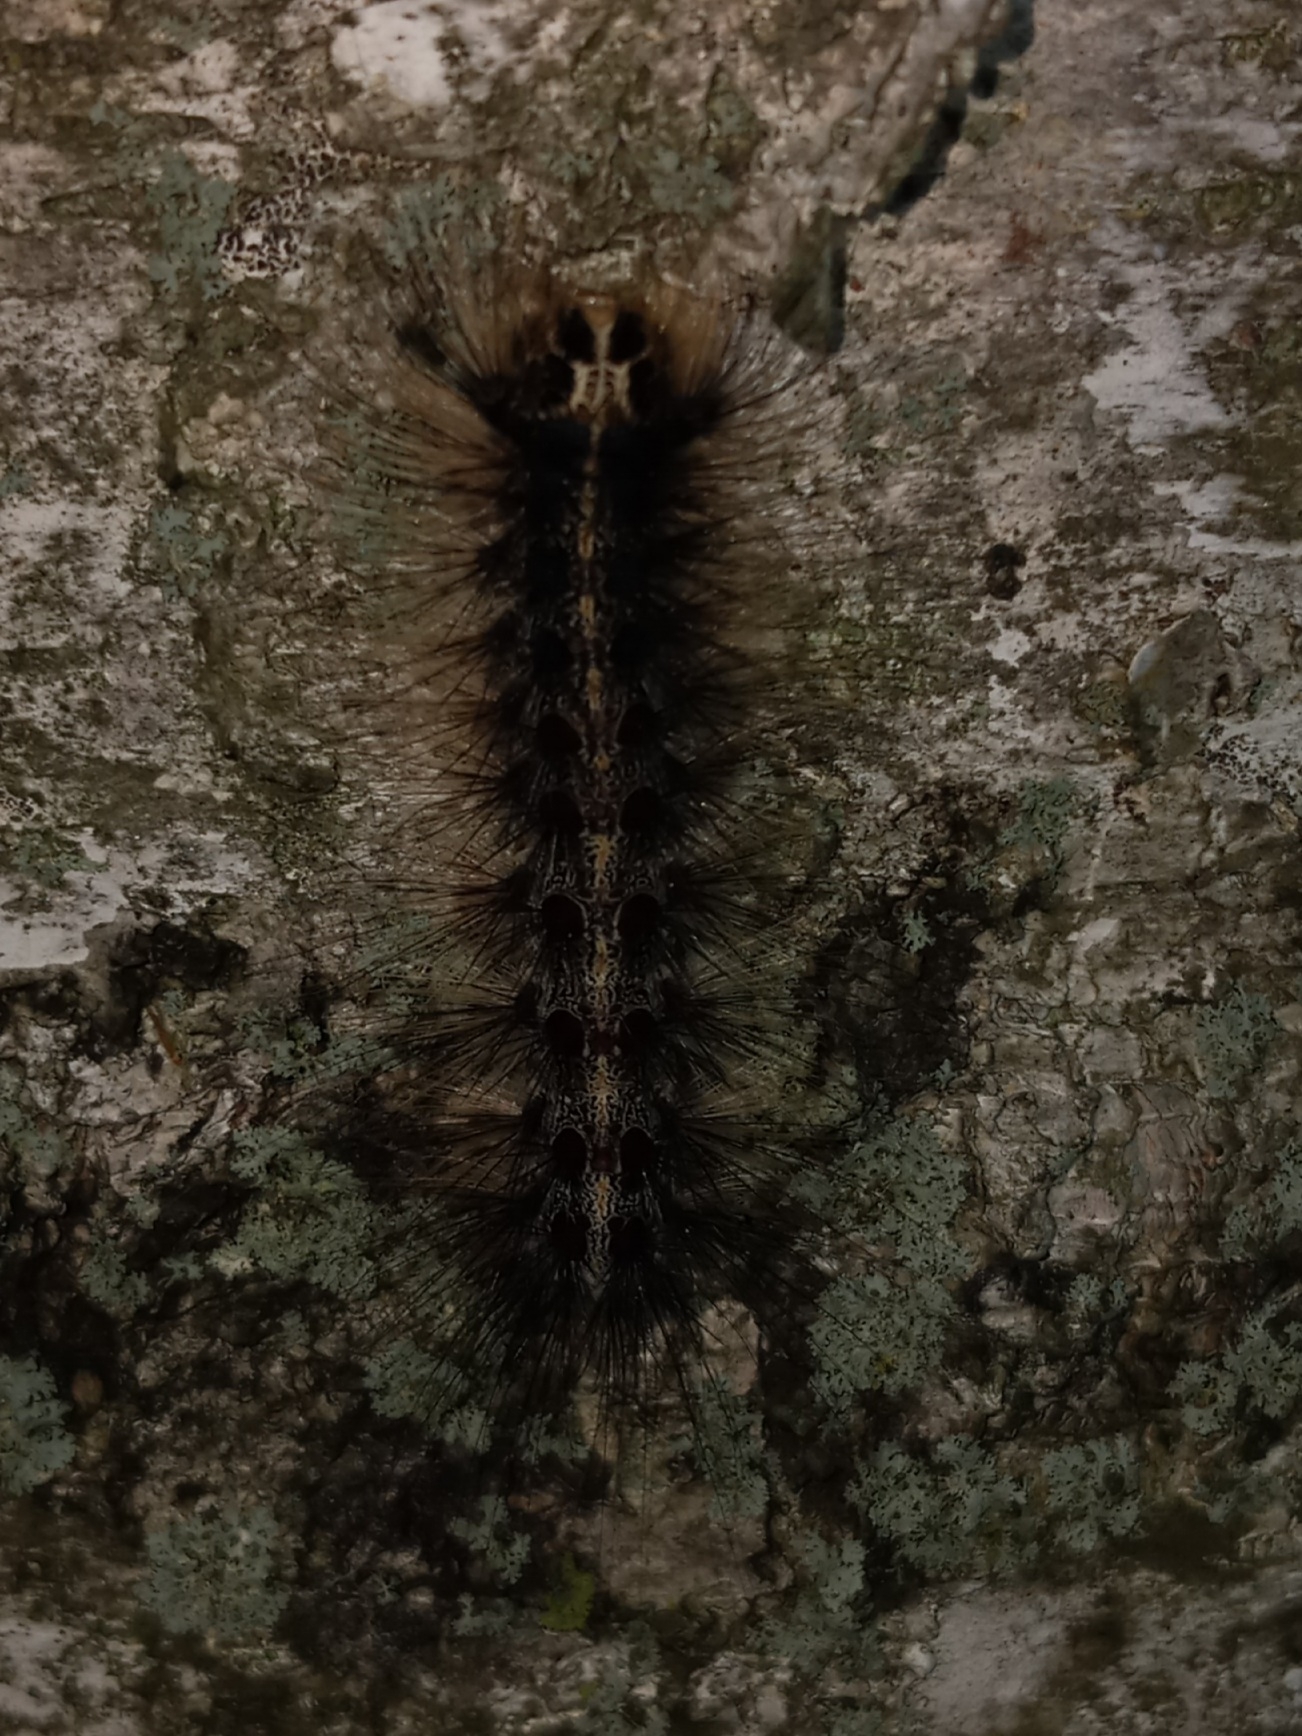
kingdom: Animalia
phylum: Arthropoda
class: Insecta
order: Lepidoptera
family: Erebidae
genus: Lymantria
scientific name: Lymantria dispar
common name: Gypsy moth
